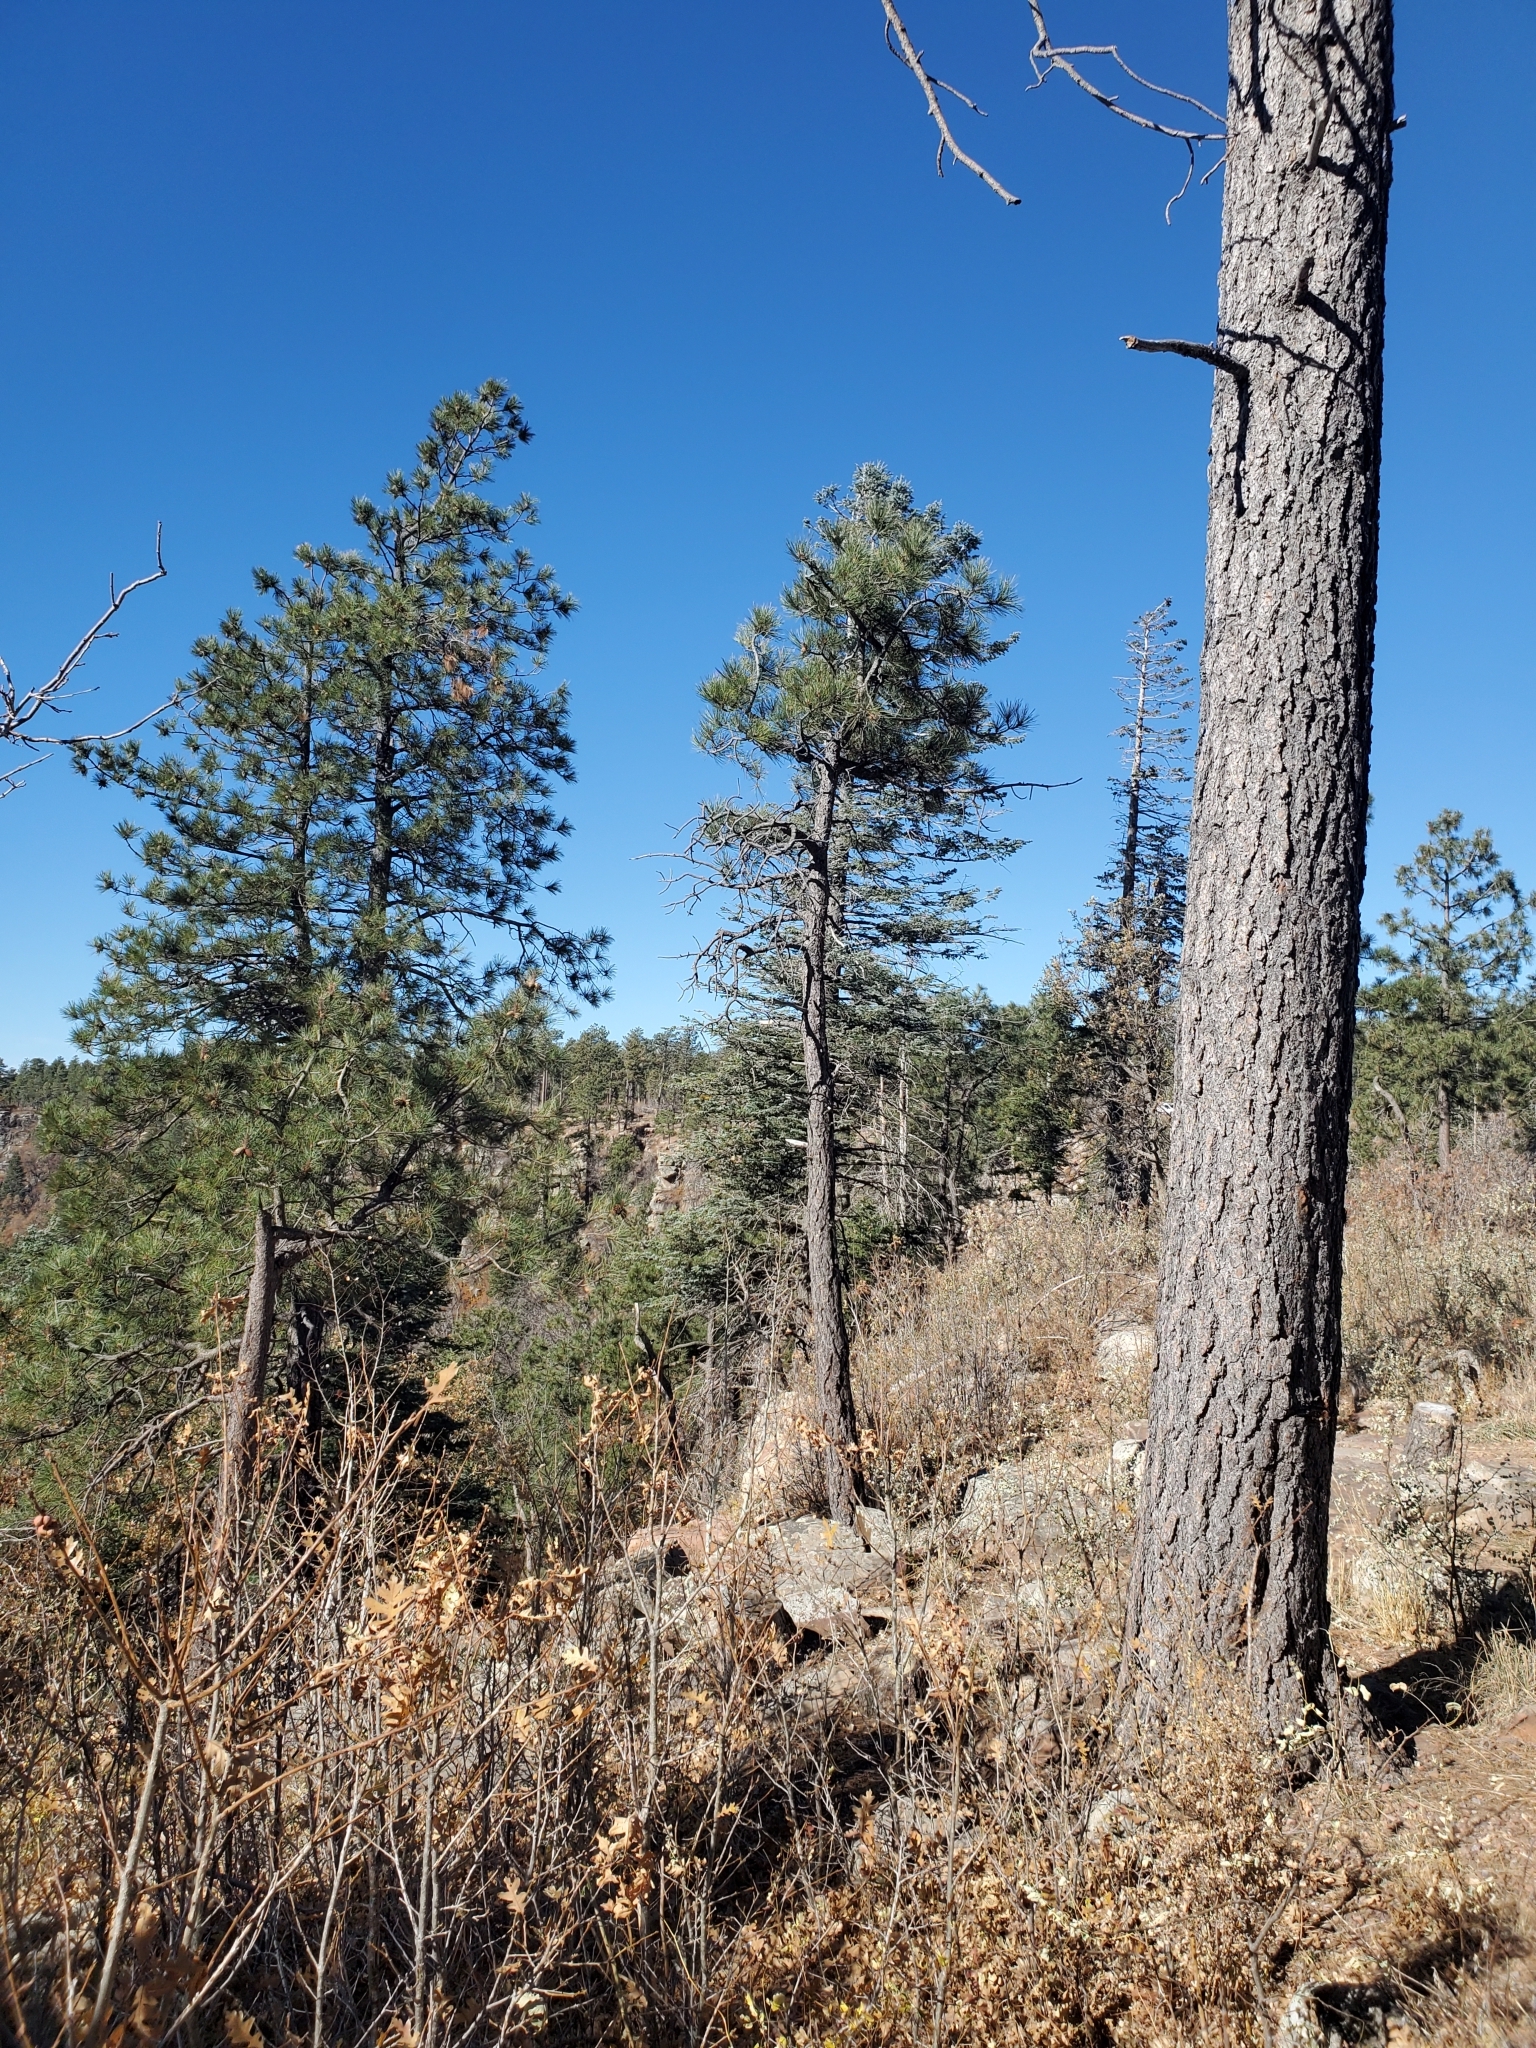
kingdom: Plantae
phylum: Tracheophyta
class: Pinopsida
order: Pinales
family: Pinaceae
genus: Pinus
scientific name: Pinus ponderosa
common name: Western yellow-pine
